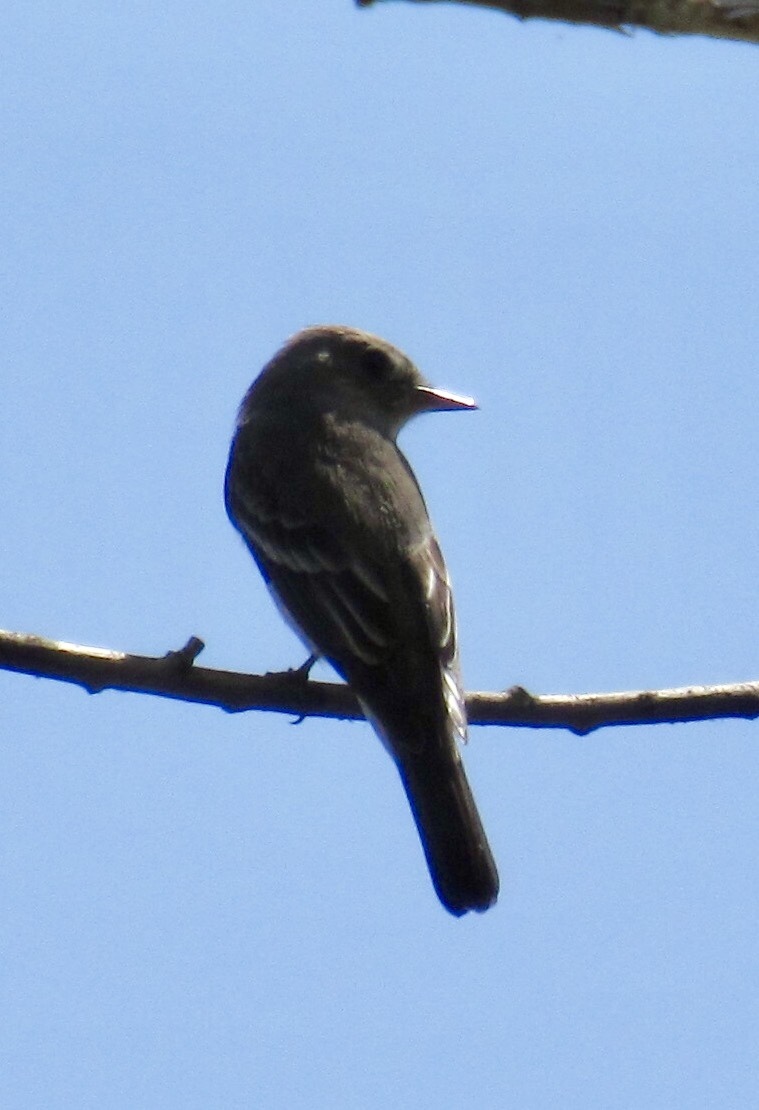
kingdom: Animalia
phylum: Chordata
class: Aves
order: Passeriformes
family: Tyrannidae
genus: Contopus
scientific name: Contopus sordidulus
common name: Western wood-pewee
